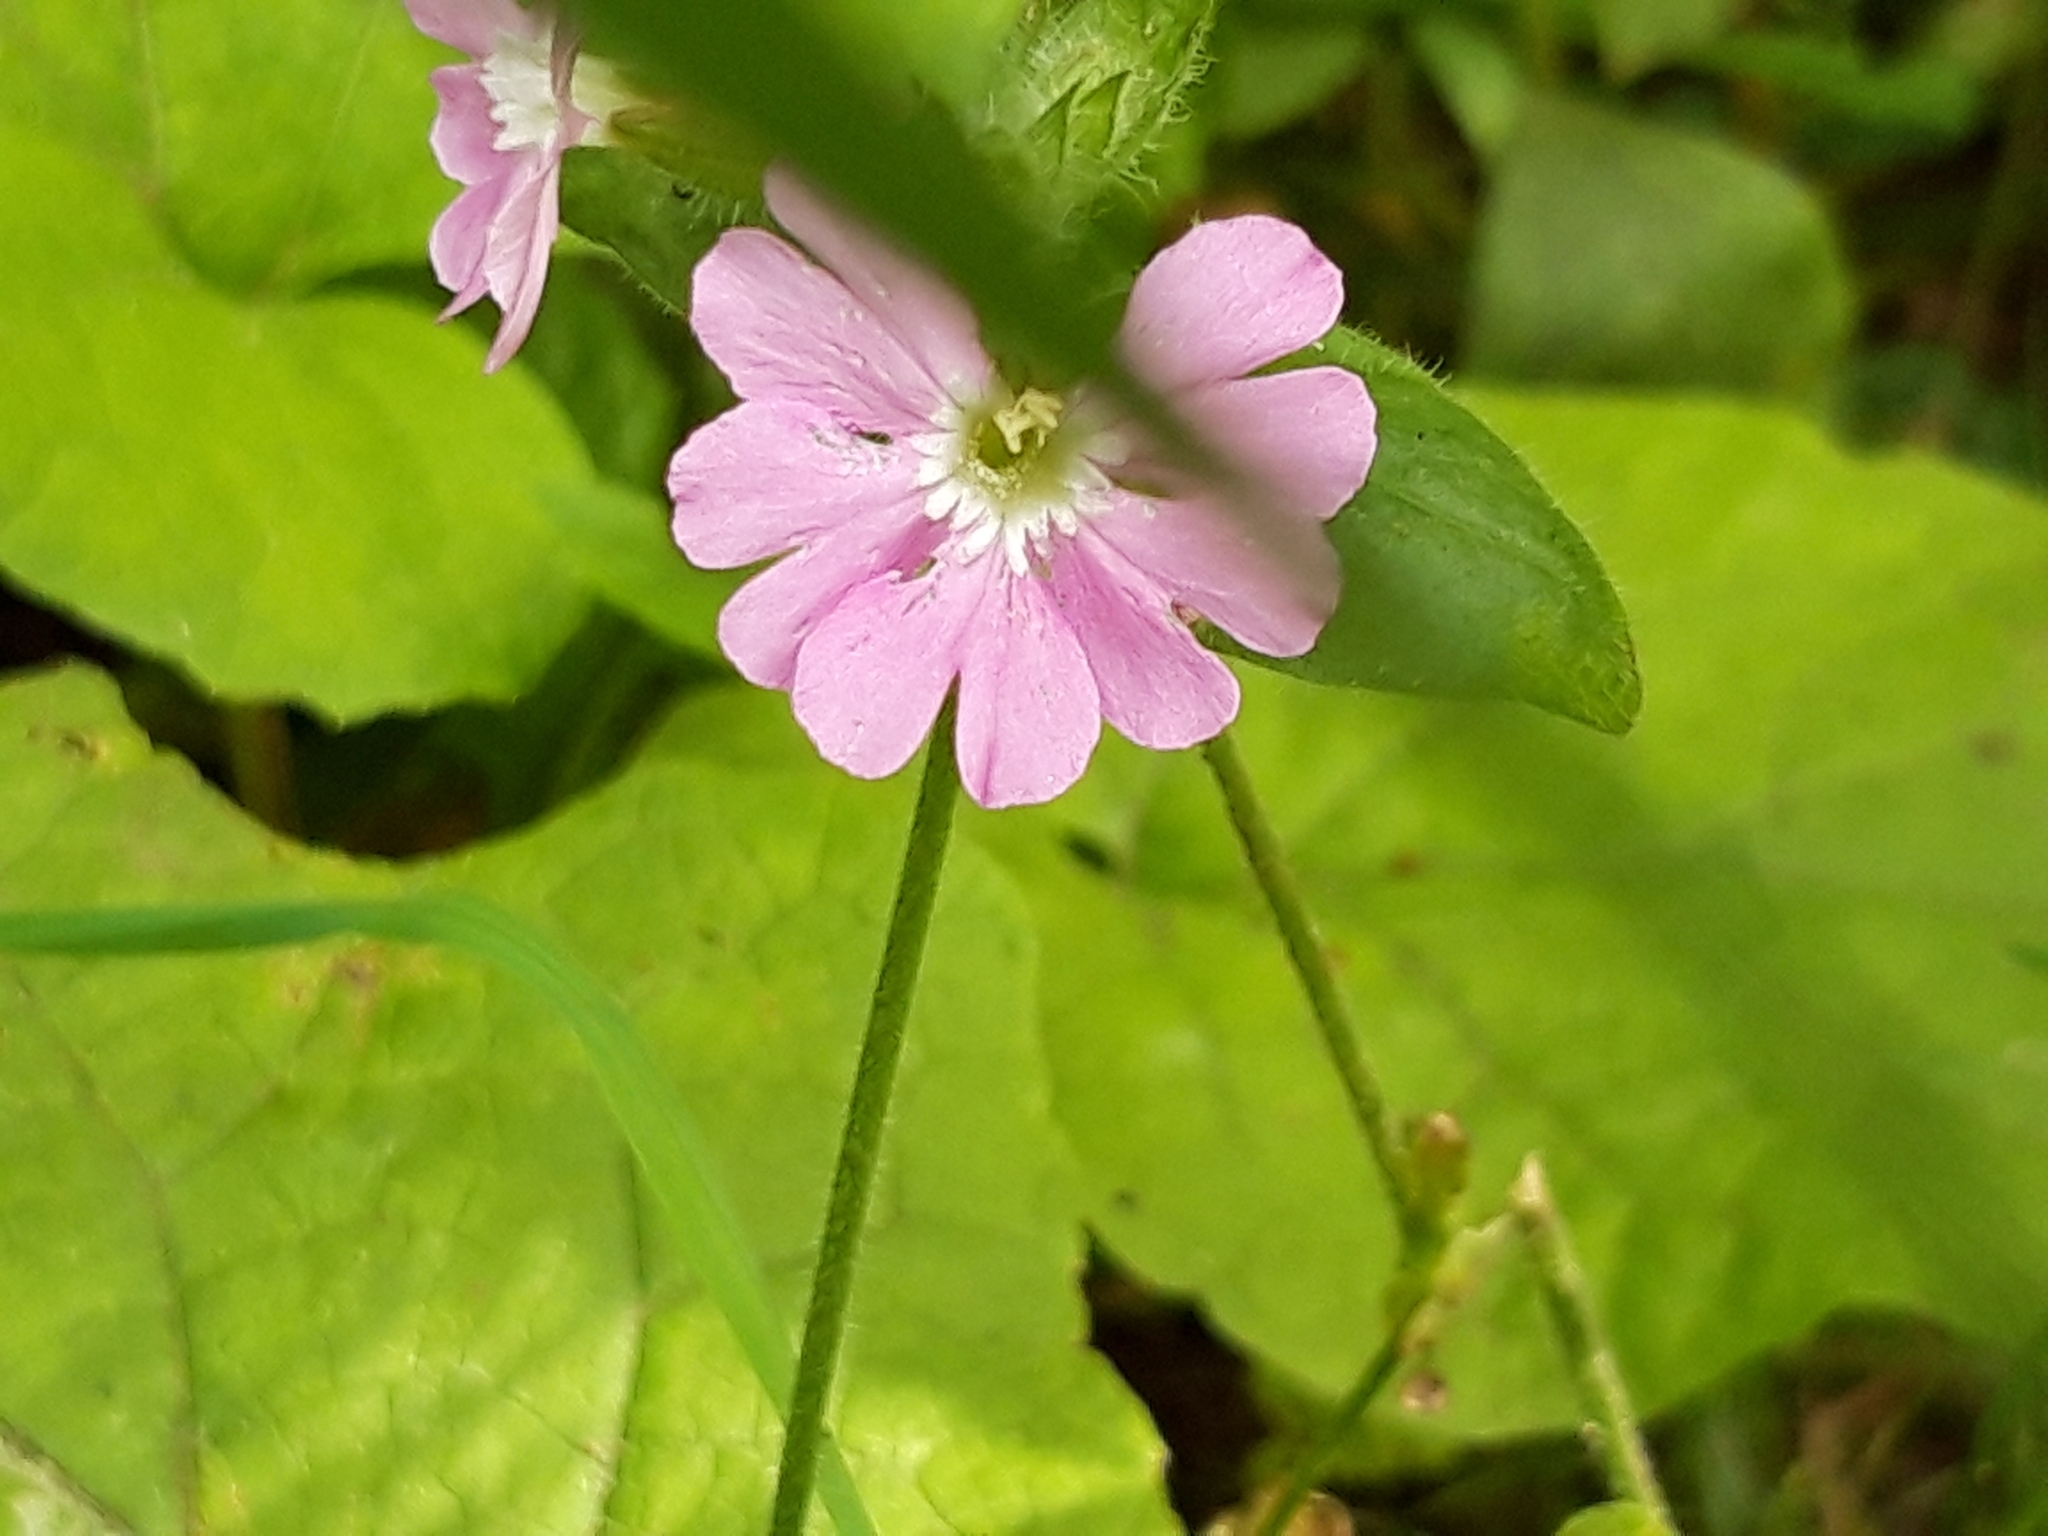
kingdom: Plantae
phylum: Tracheophyta
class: Magnoliopsida
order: Caryophyllales
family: Caryophyllaceae
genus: Silene
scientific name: Silene dioica
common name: Red campion
